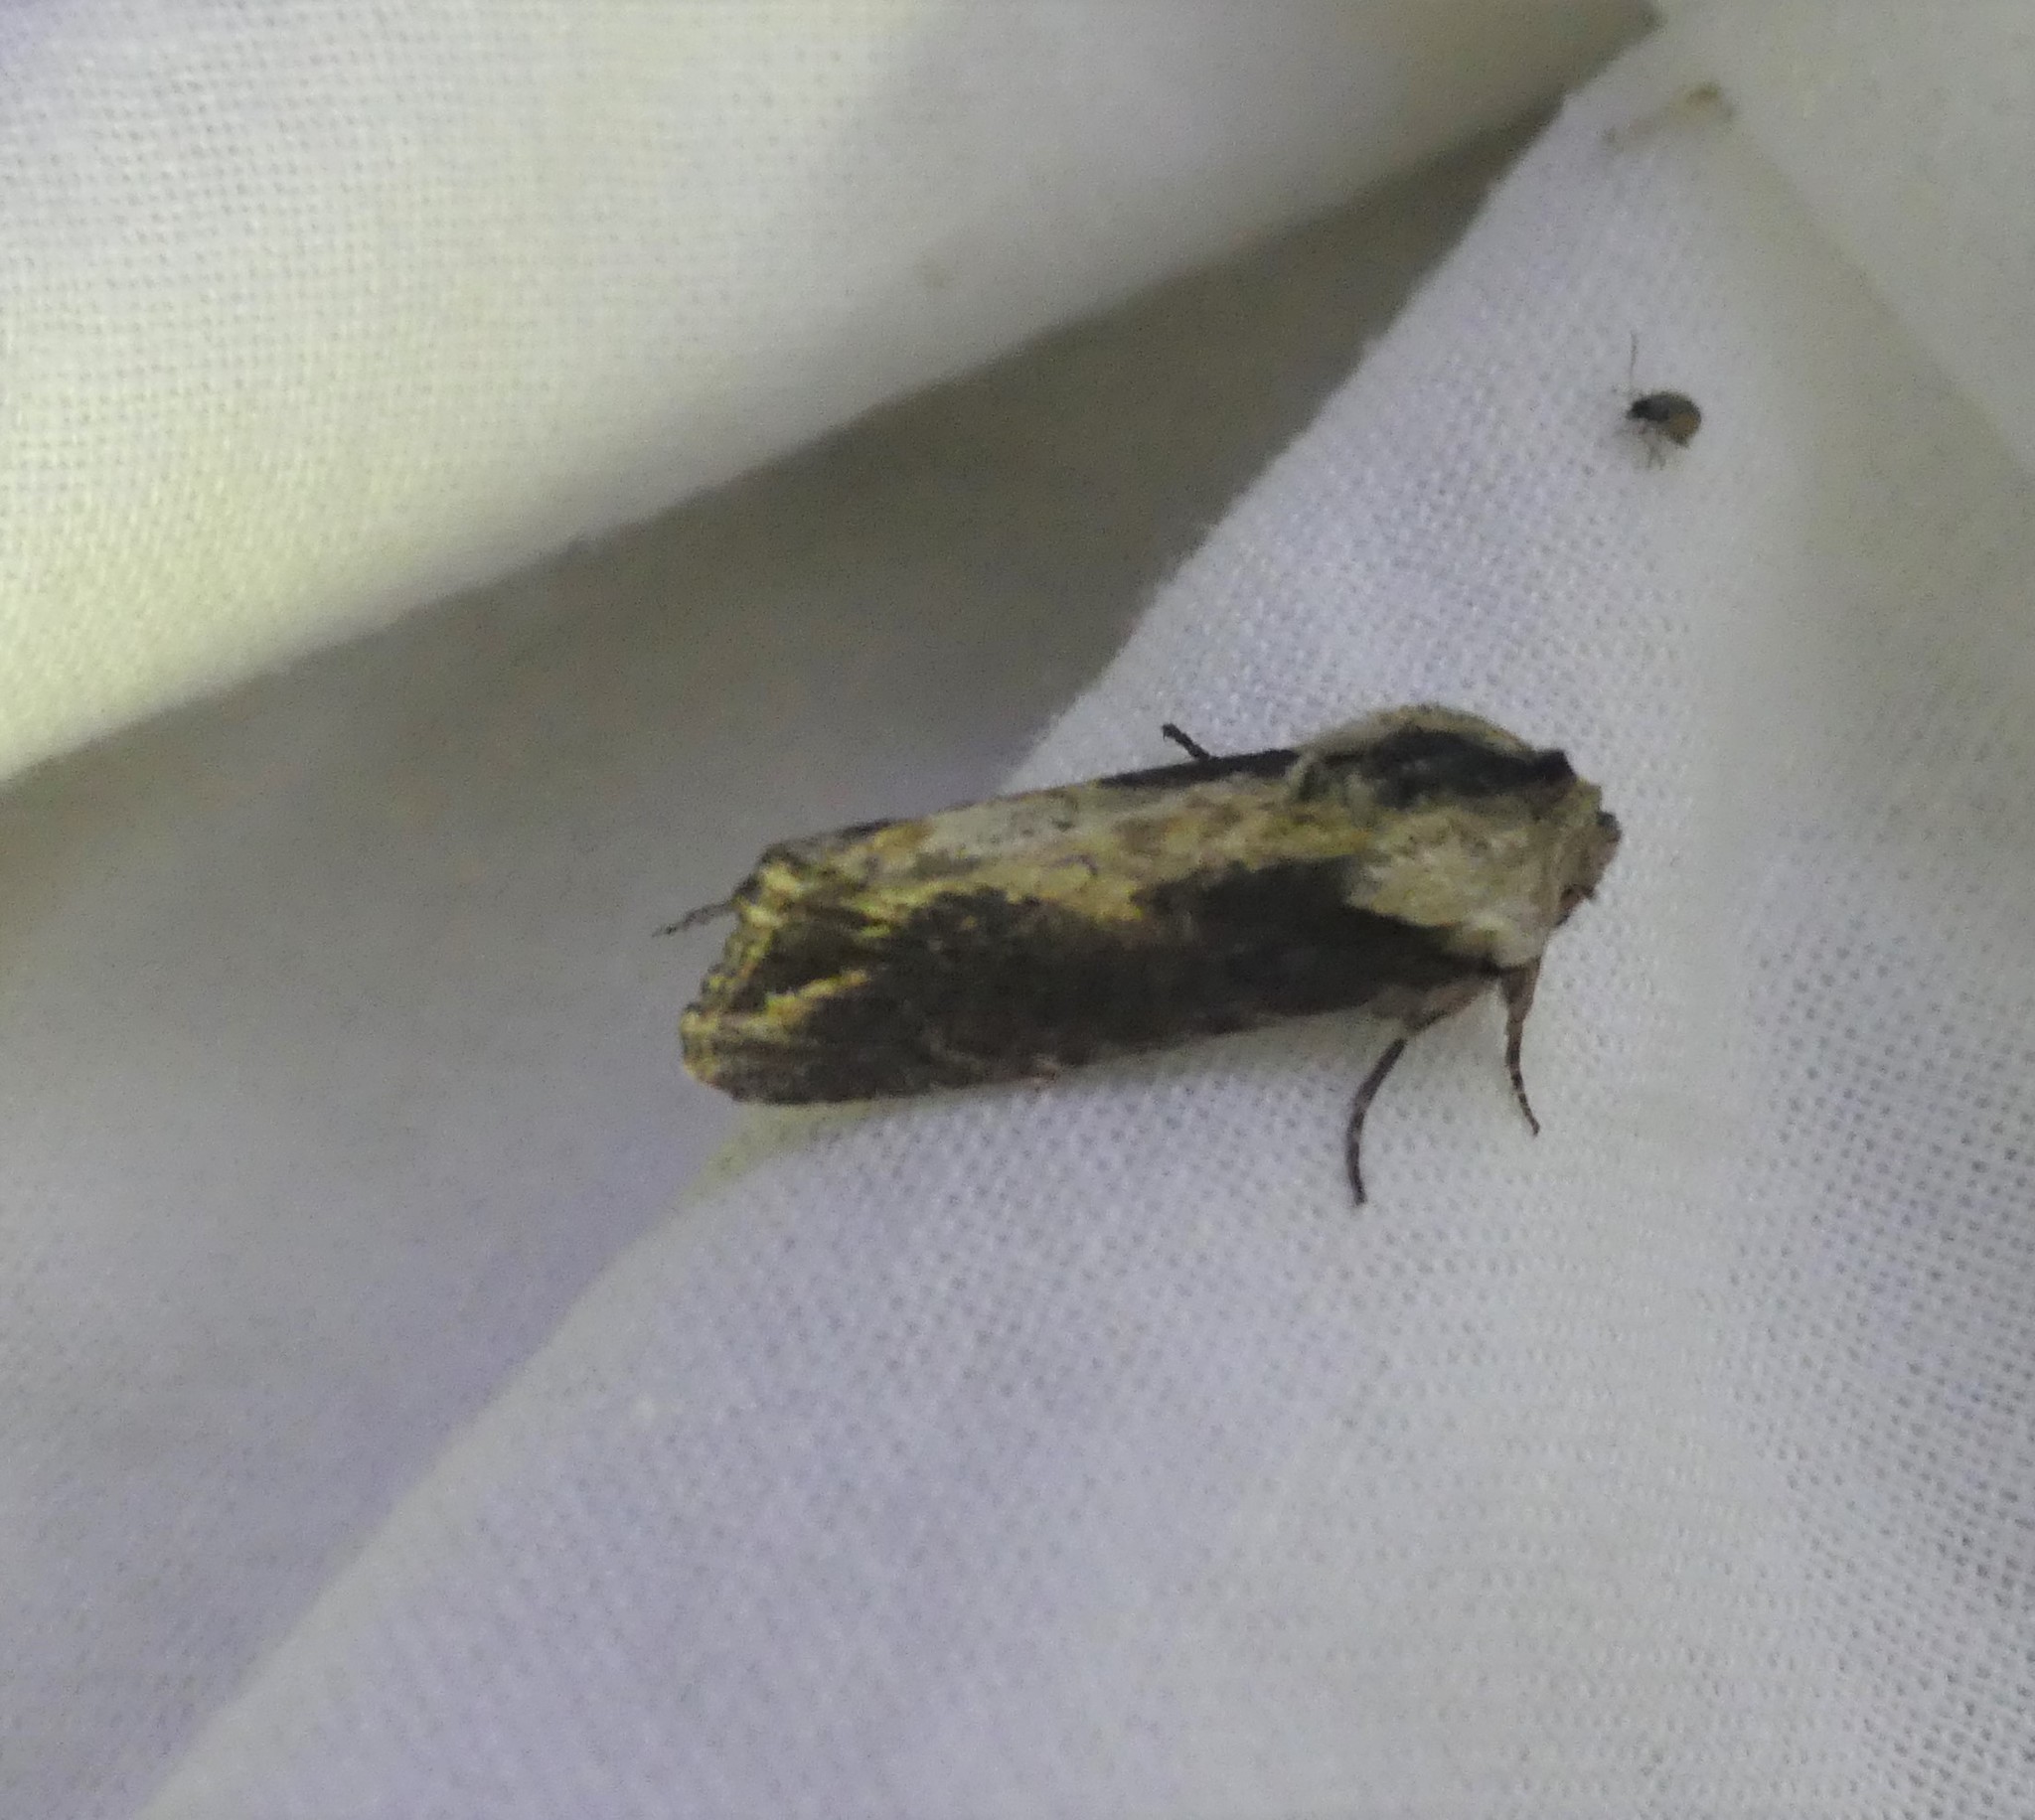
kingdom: Animalia
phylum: Arthropoda
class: Insecta
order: Lepidoptera
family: Noctuidae
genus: Egira
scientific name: Egira conspicillaris
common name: Silver cloud
